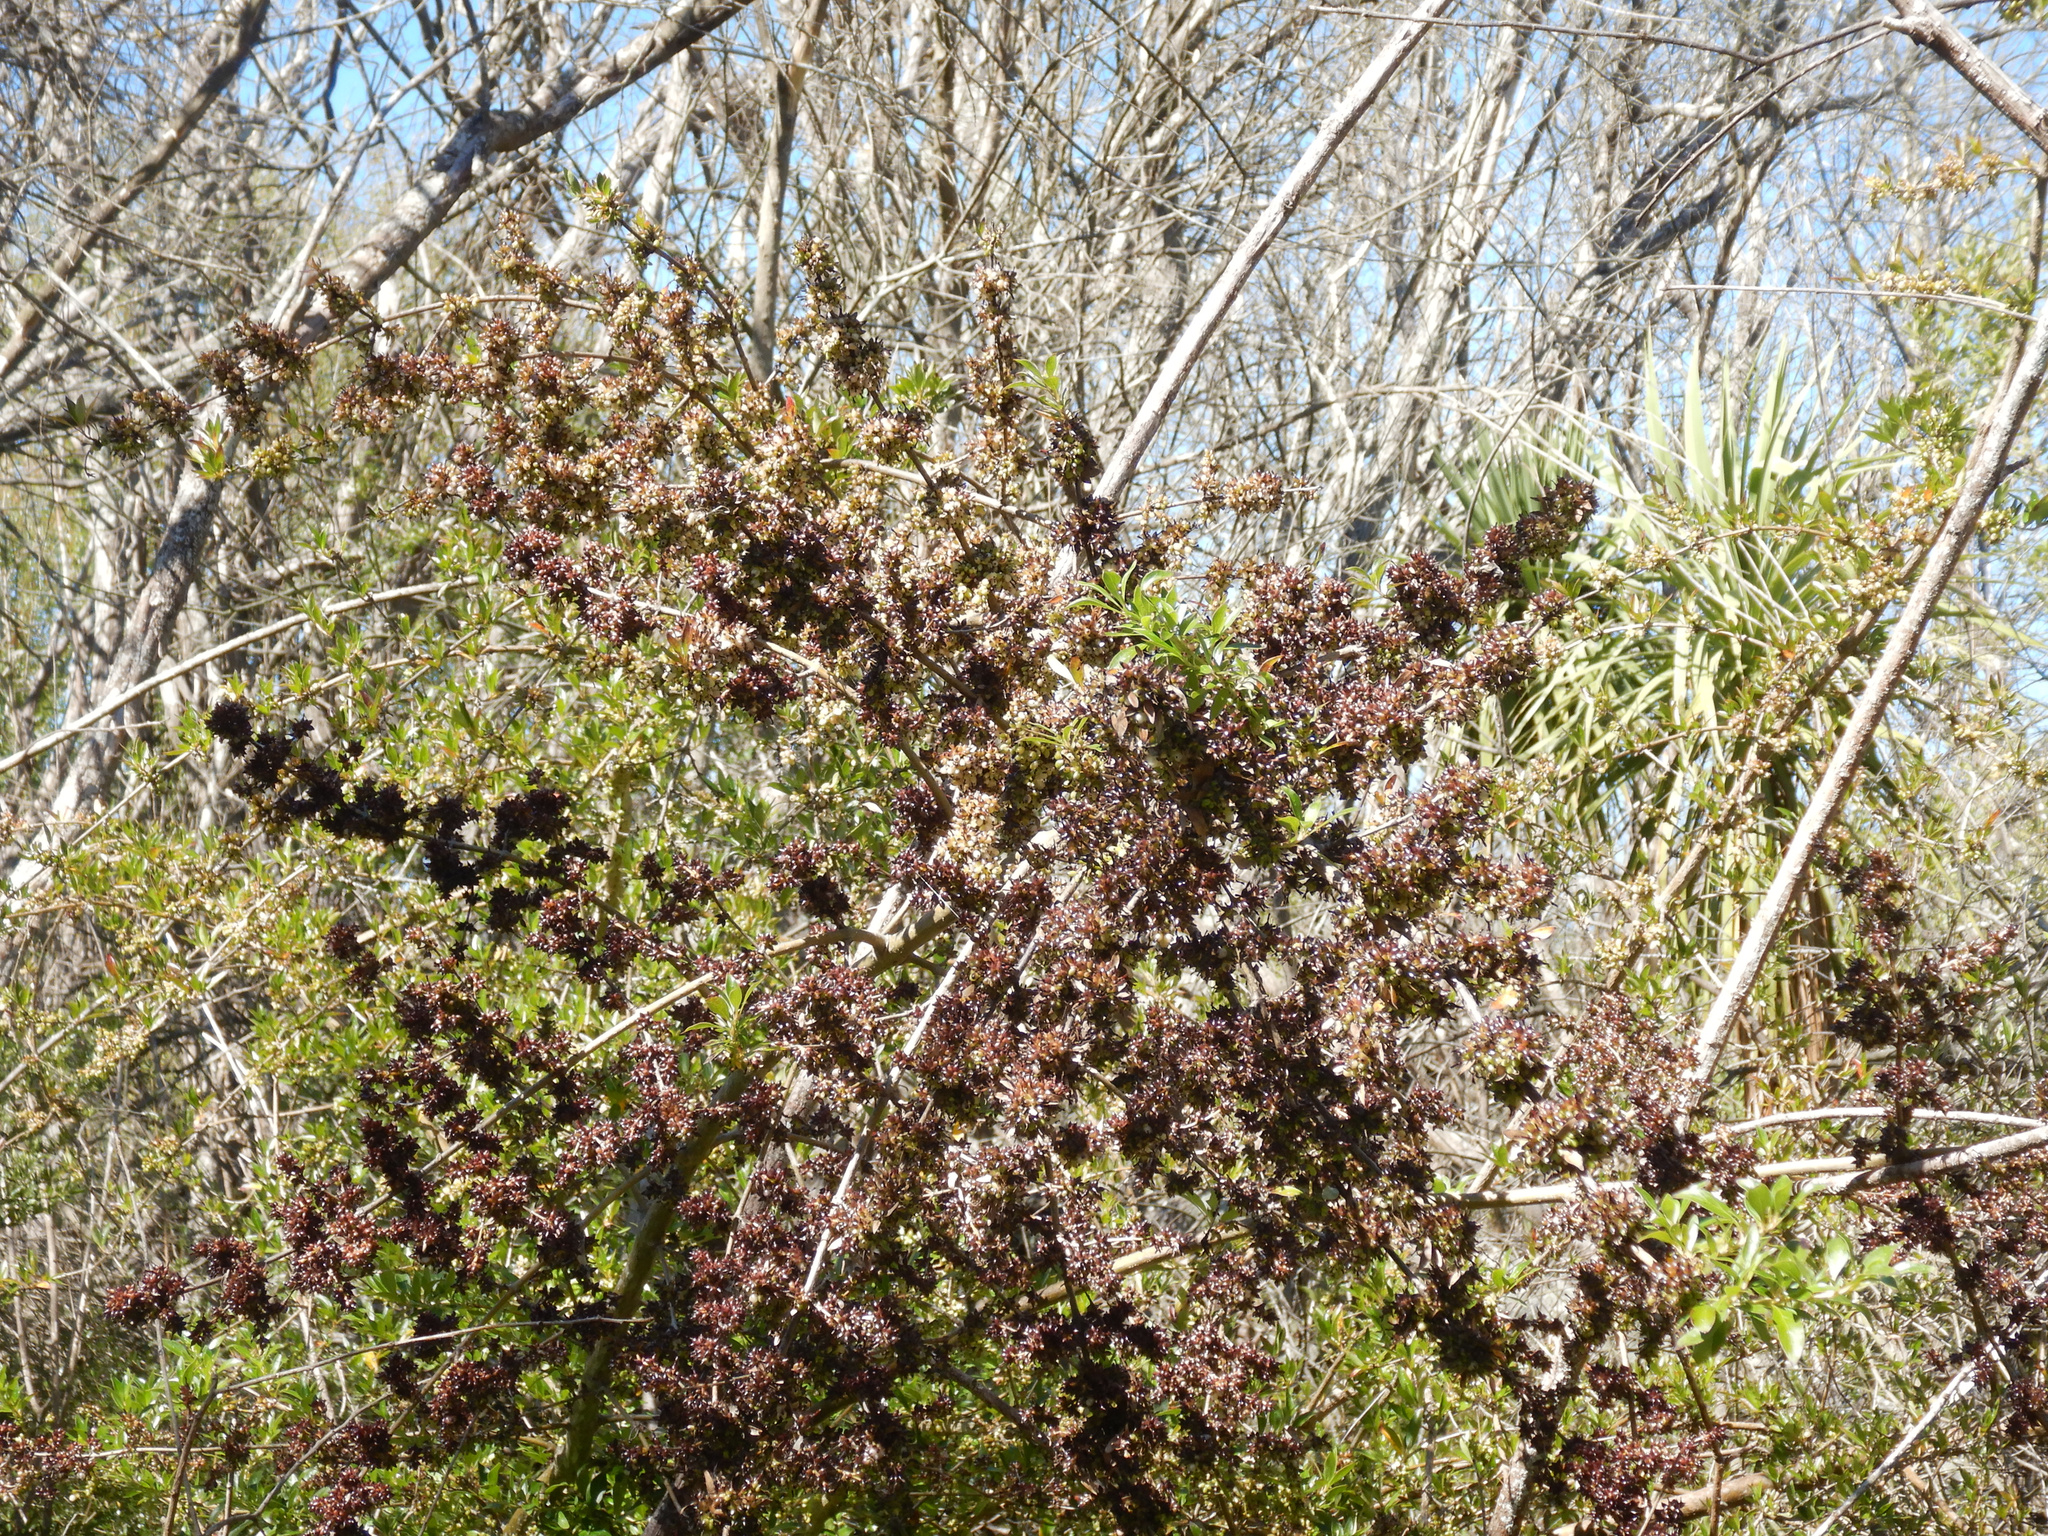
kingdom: Plantae
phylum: Tracheophyta
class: Magnoliopsida
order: Gentianales
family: Rubiaceae
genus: Coprosma
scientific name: Coprosma cunninghamii
